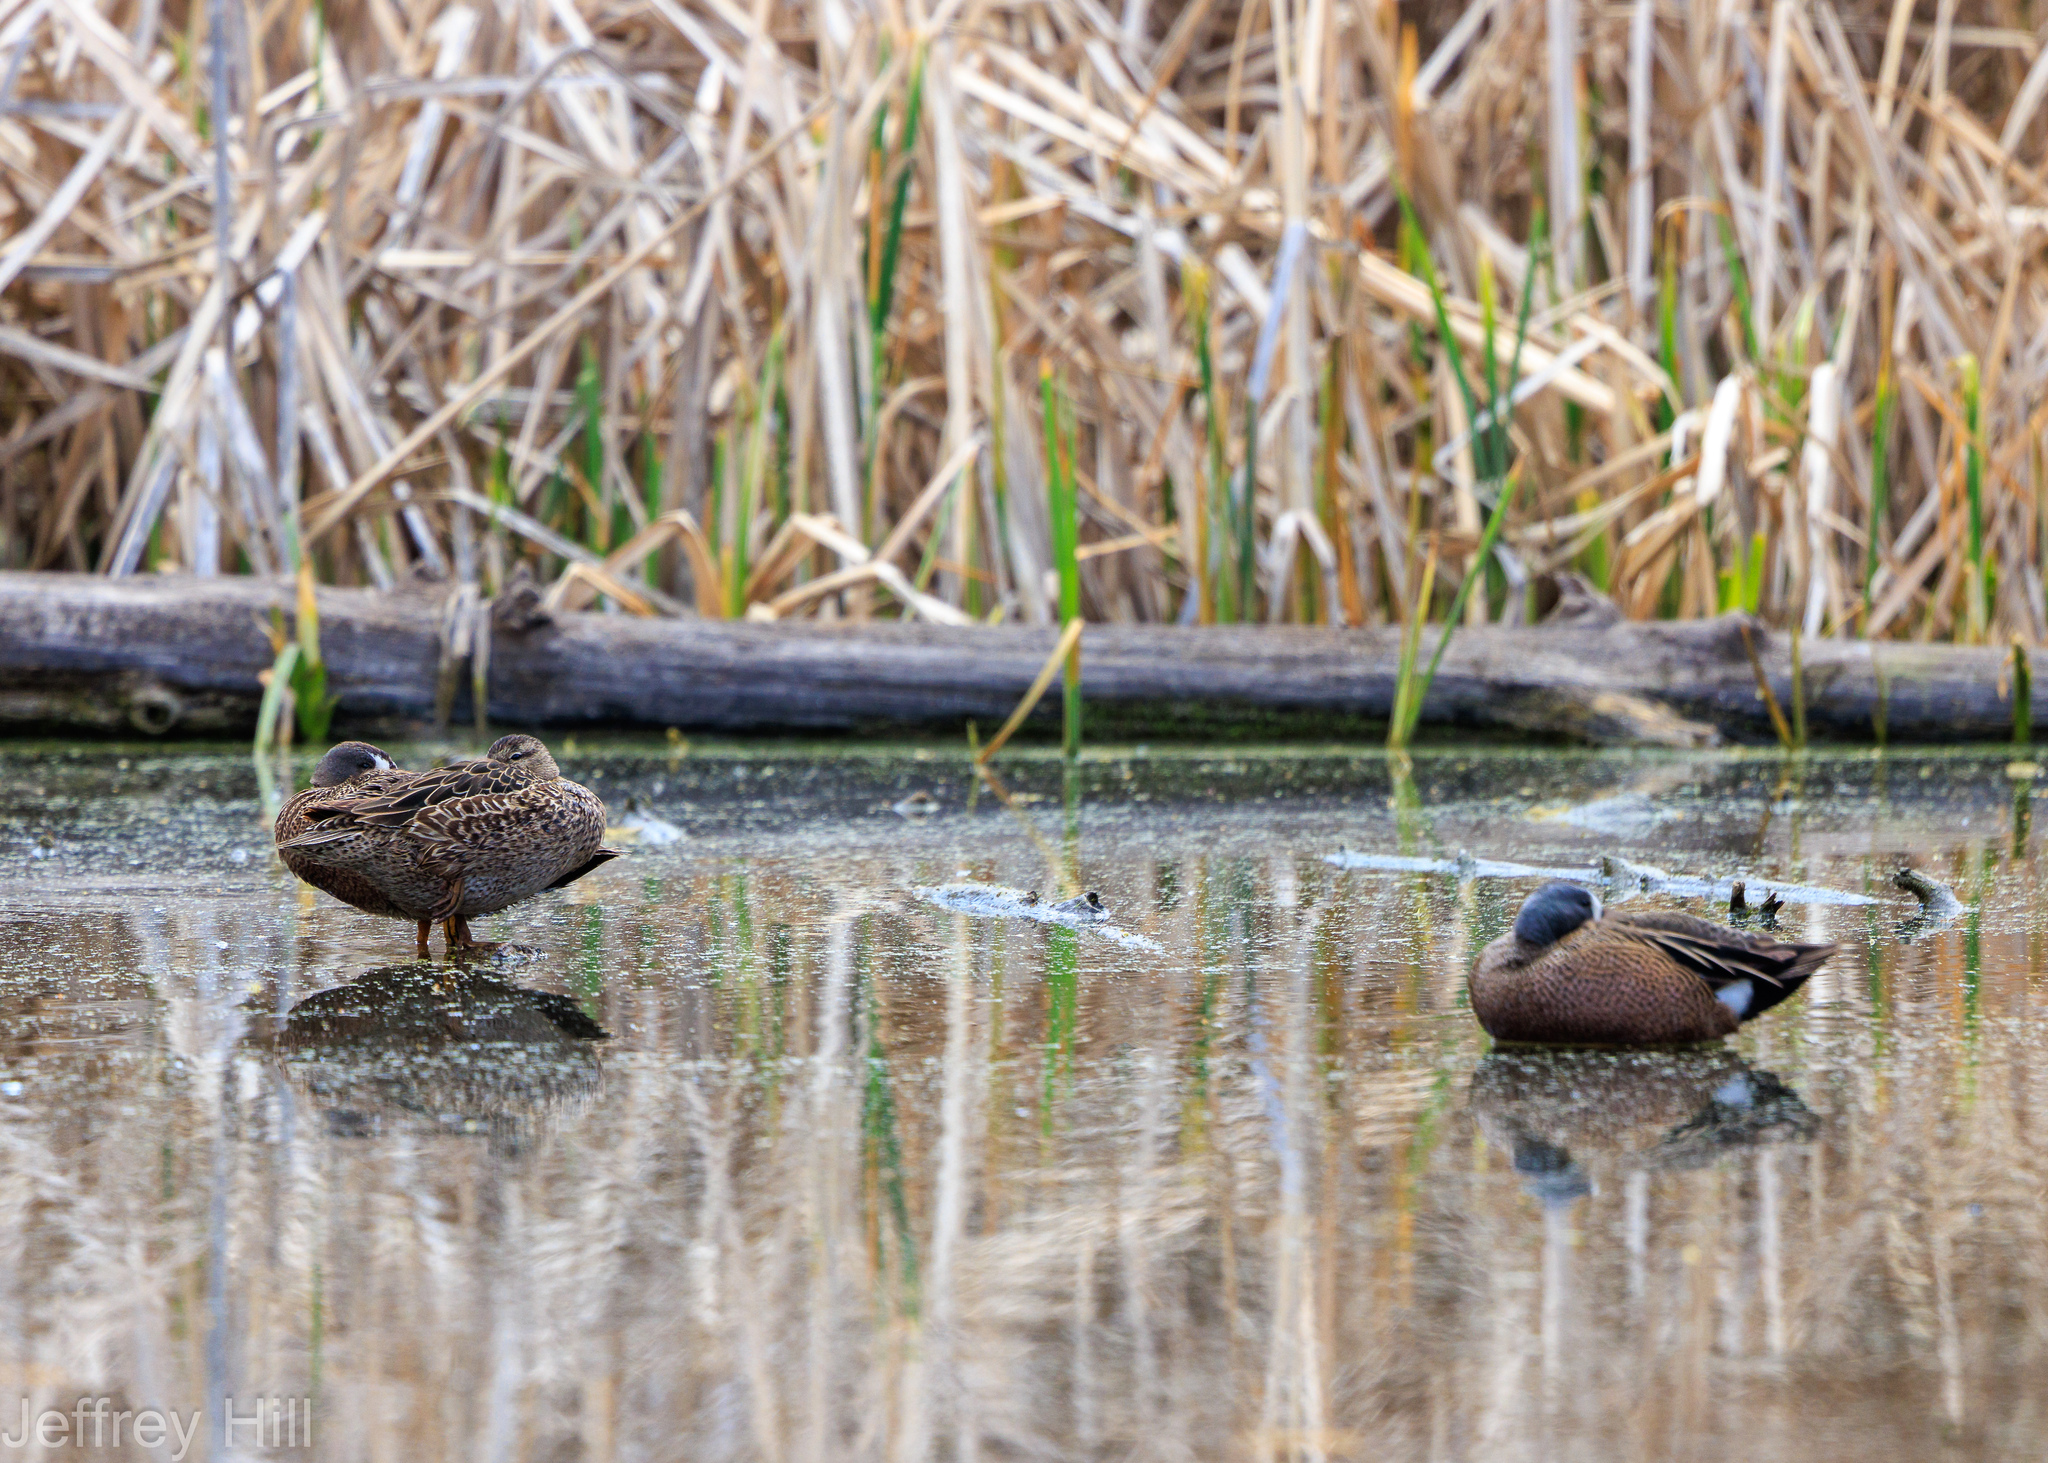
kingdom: Animalia
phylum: Chordata
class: Aves
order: Anseriformes
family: Anatidae
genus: Spatula
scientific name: Spatula discors
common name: Blue-winged teal
